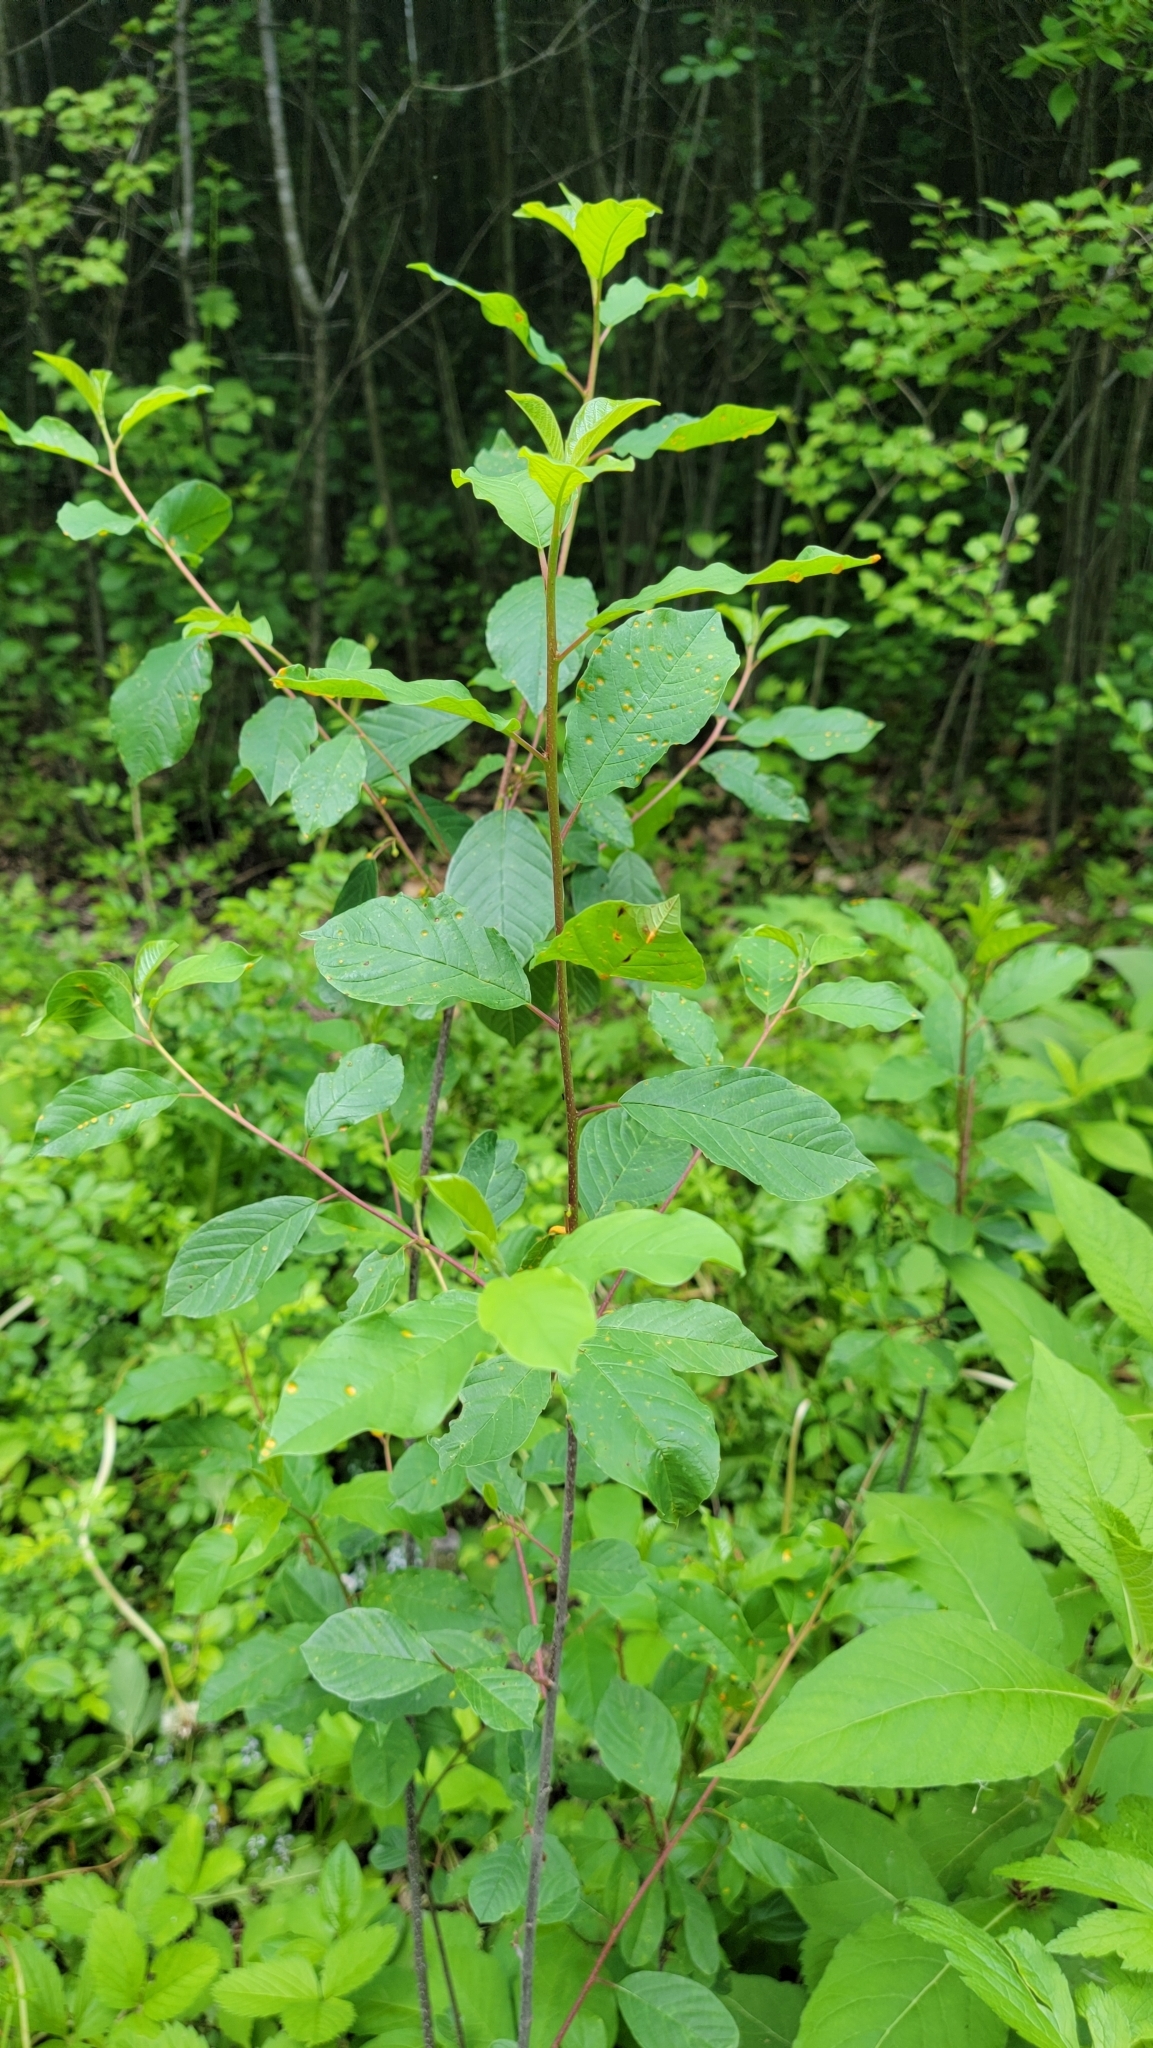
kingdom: Plantae
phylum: Tracheophyta
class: Magnoliopsida
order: Rosales
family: Rhamnaceae
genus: Frangula
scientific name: Frangula alnus
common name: Alder buckthorn
